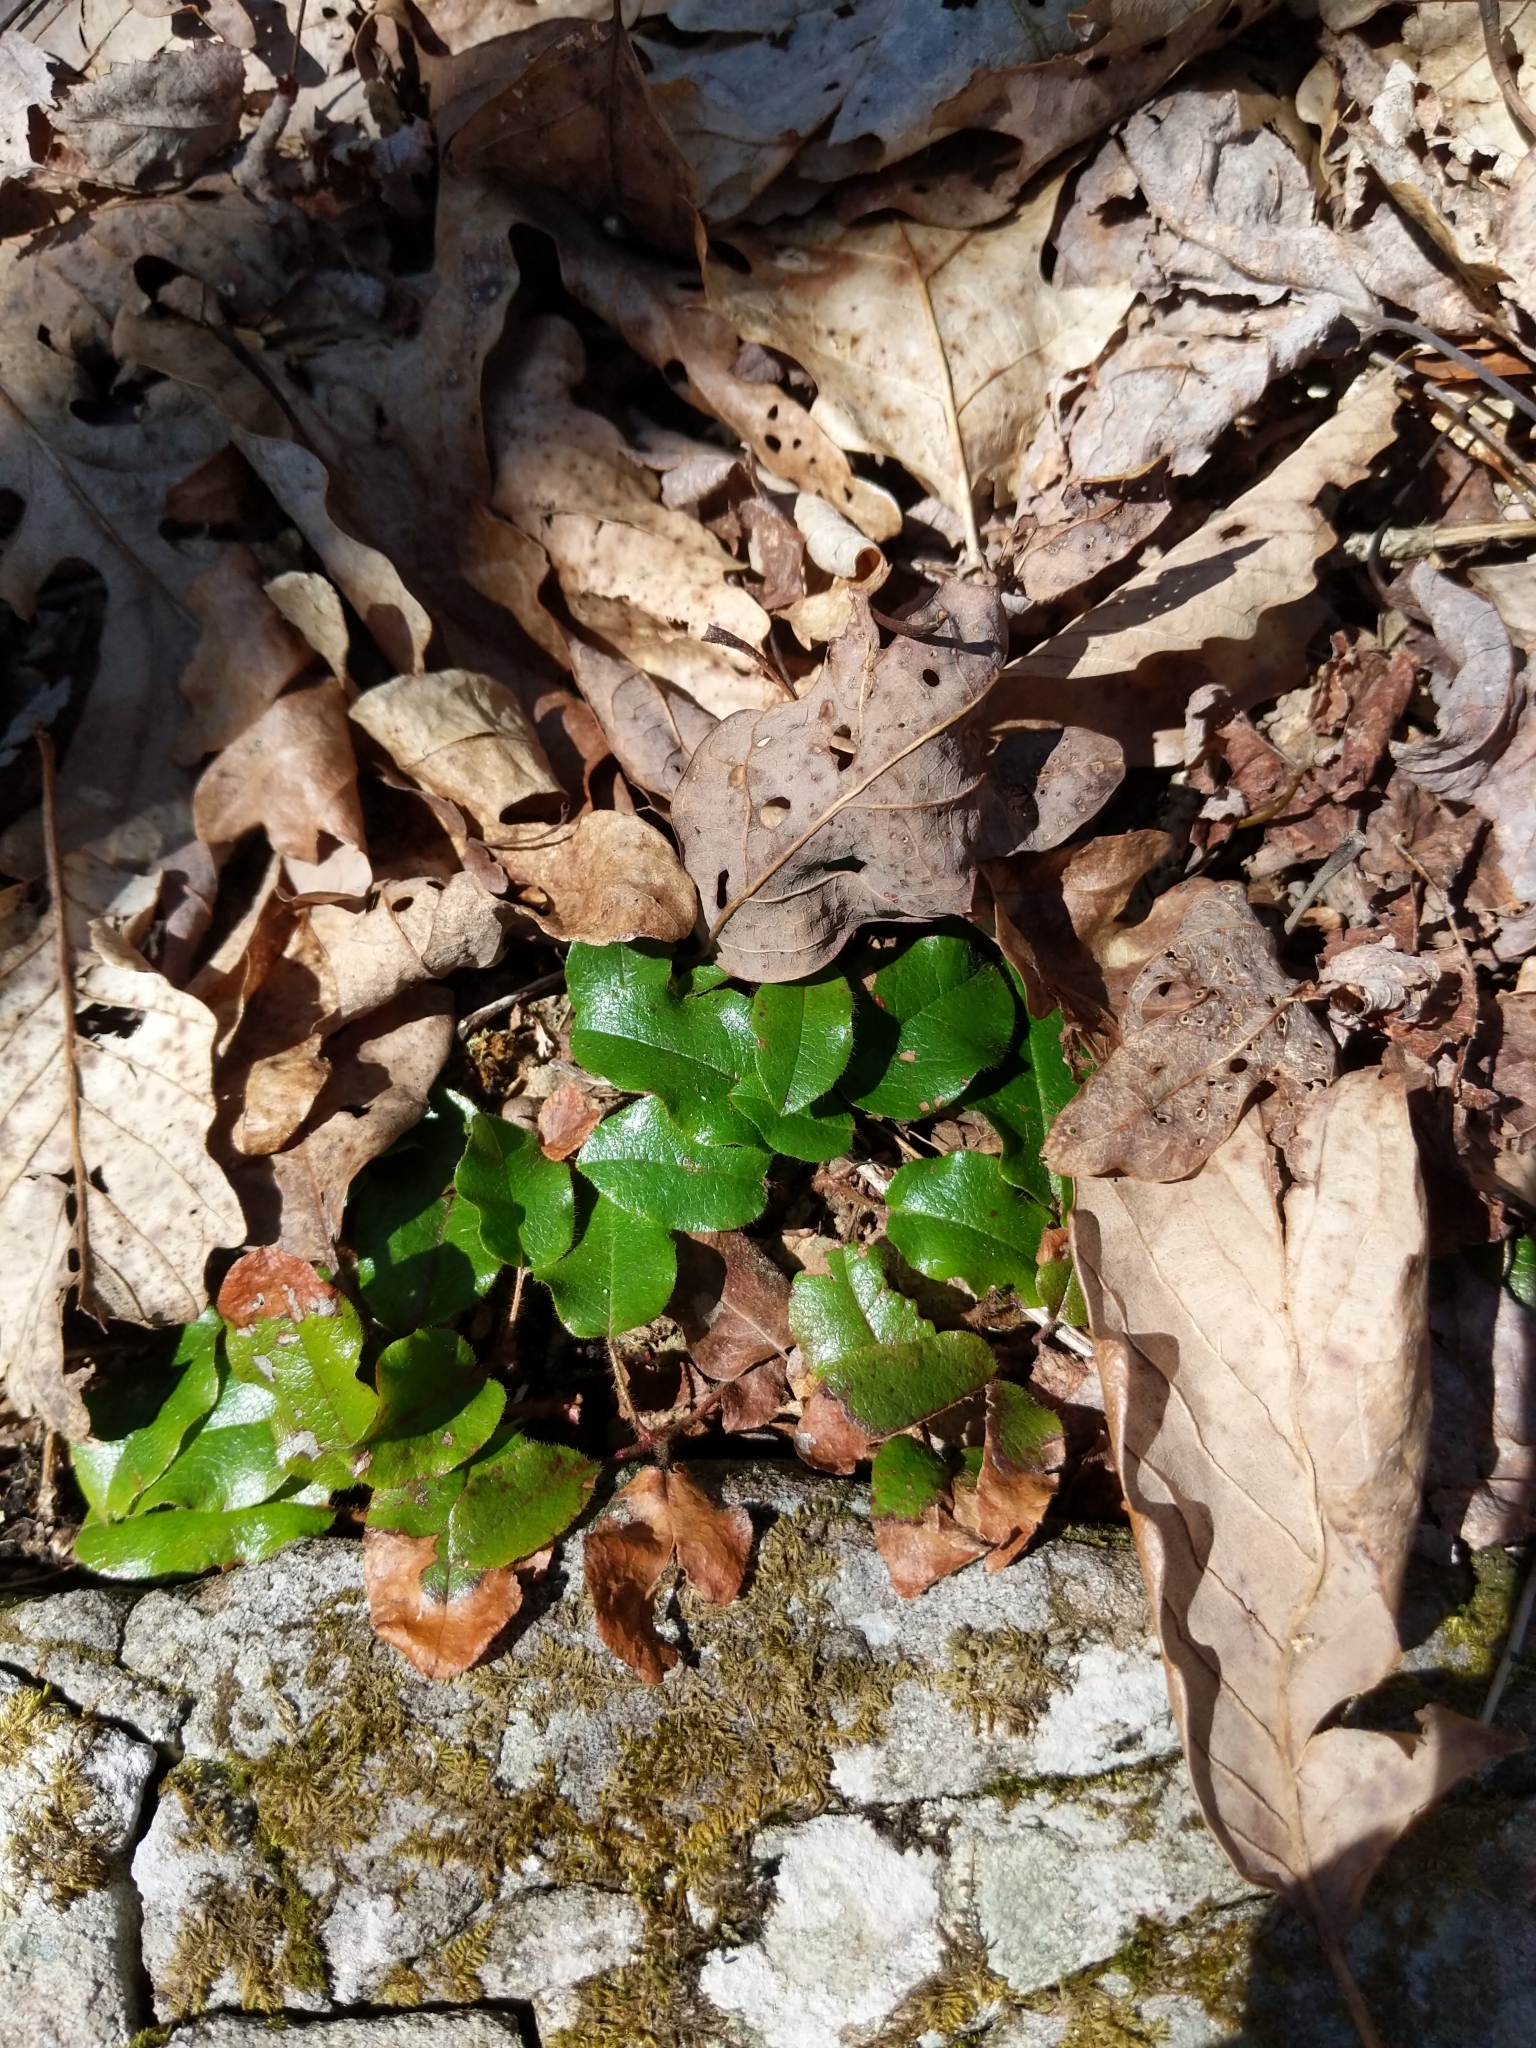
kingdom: Plantae
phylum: Tracheophyta
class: Magnoliopsida
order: Ericales
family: Ericaceae
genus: Epigaea
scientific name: Epigaea repens
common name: Gravelroot
